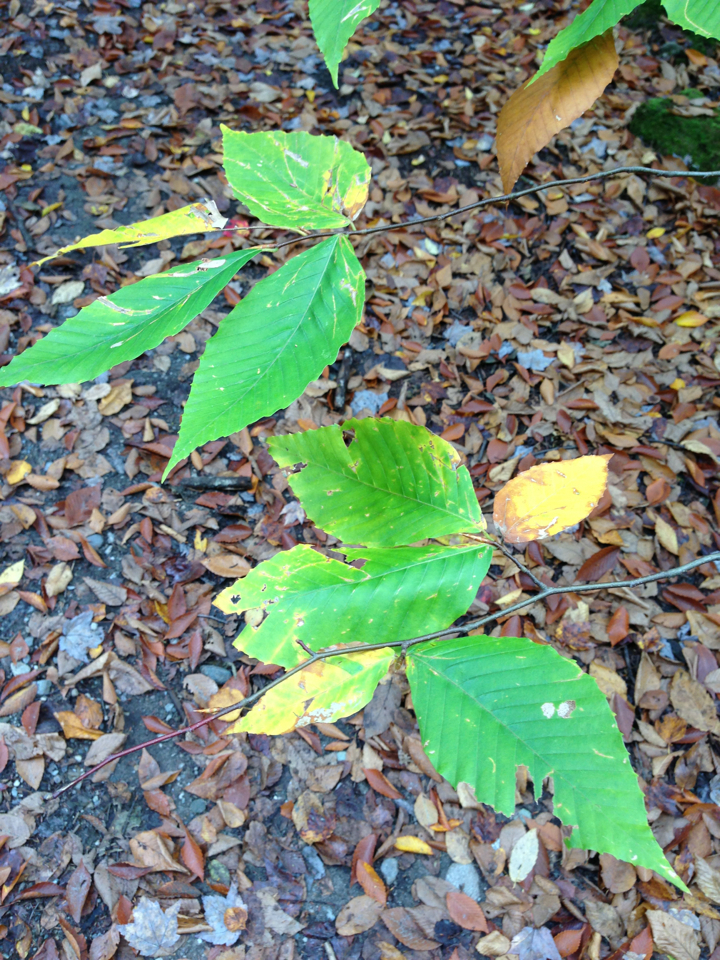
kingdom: Plantae
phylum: Tracheophyta
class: Magnoliopsida
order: Fagales
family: Fagaceae
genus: Fagus
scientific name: Fagus grandifolia
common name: American beech
